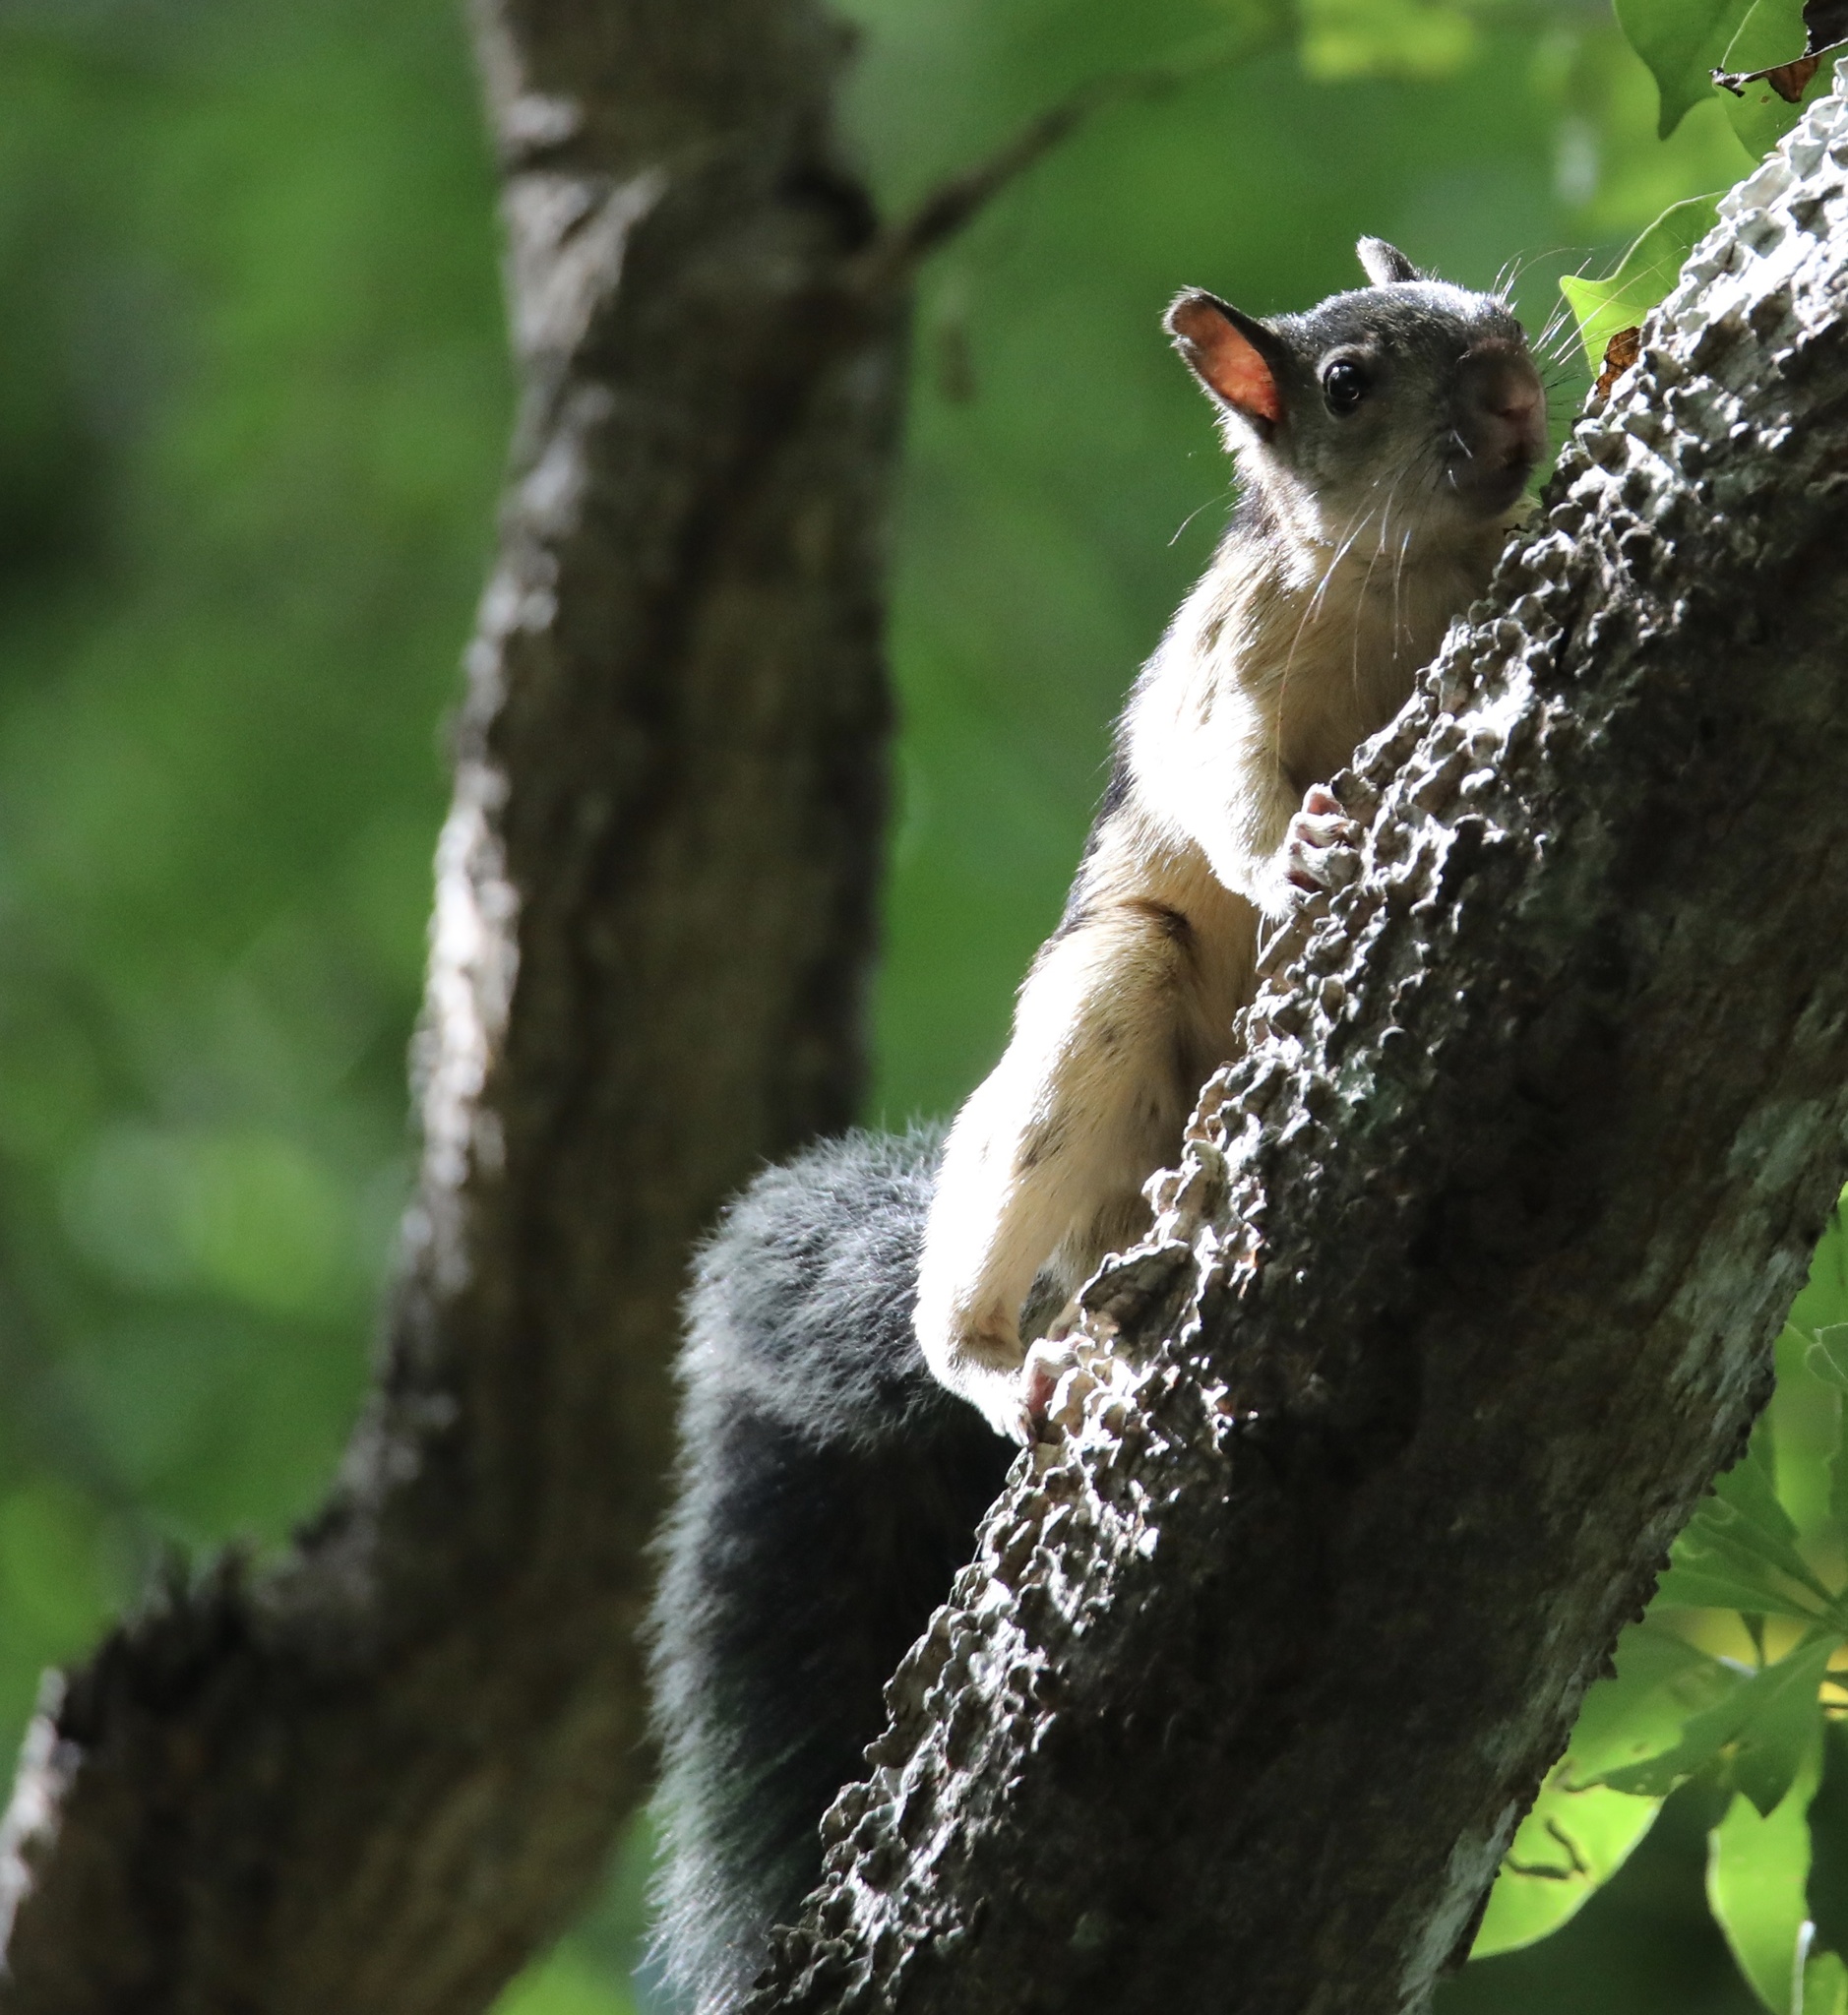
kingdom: Animalia
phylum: Chordata
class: Mammalia
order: Rodentia
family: Sciuridae
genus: Sciurus
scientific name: Sciurus variegatoides
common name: Variegated squirrel
